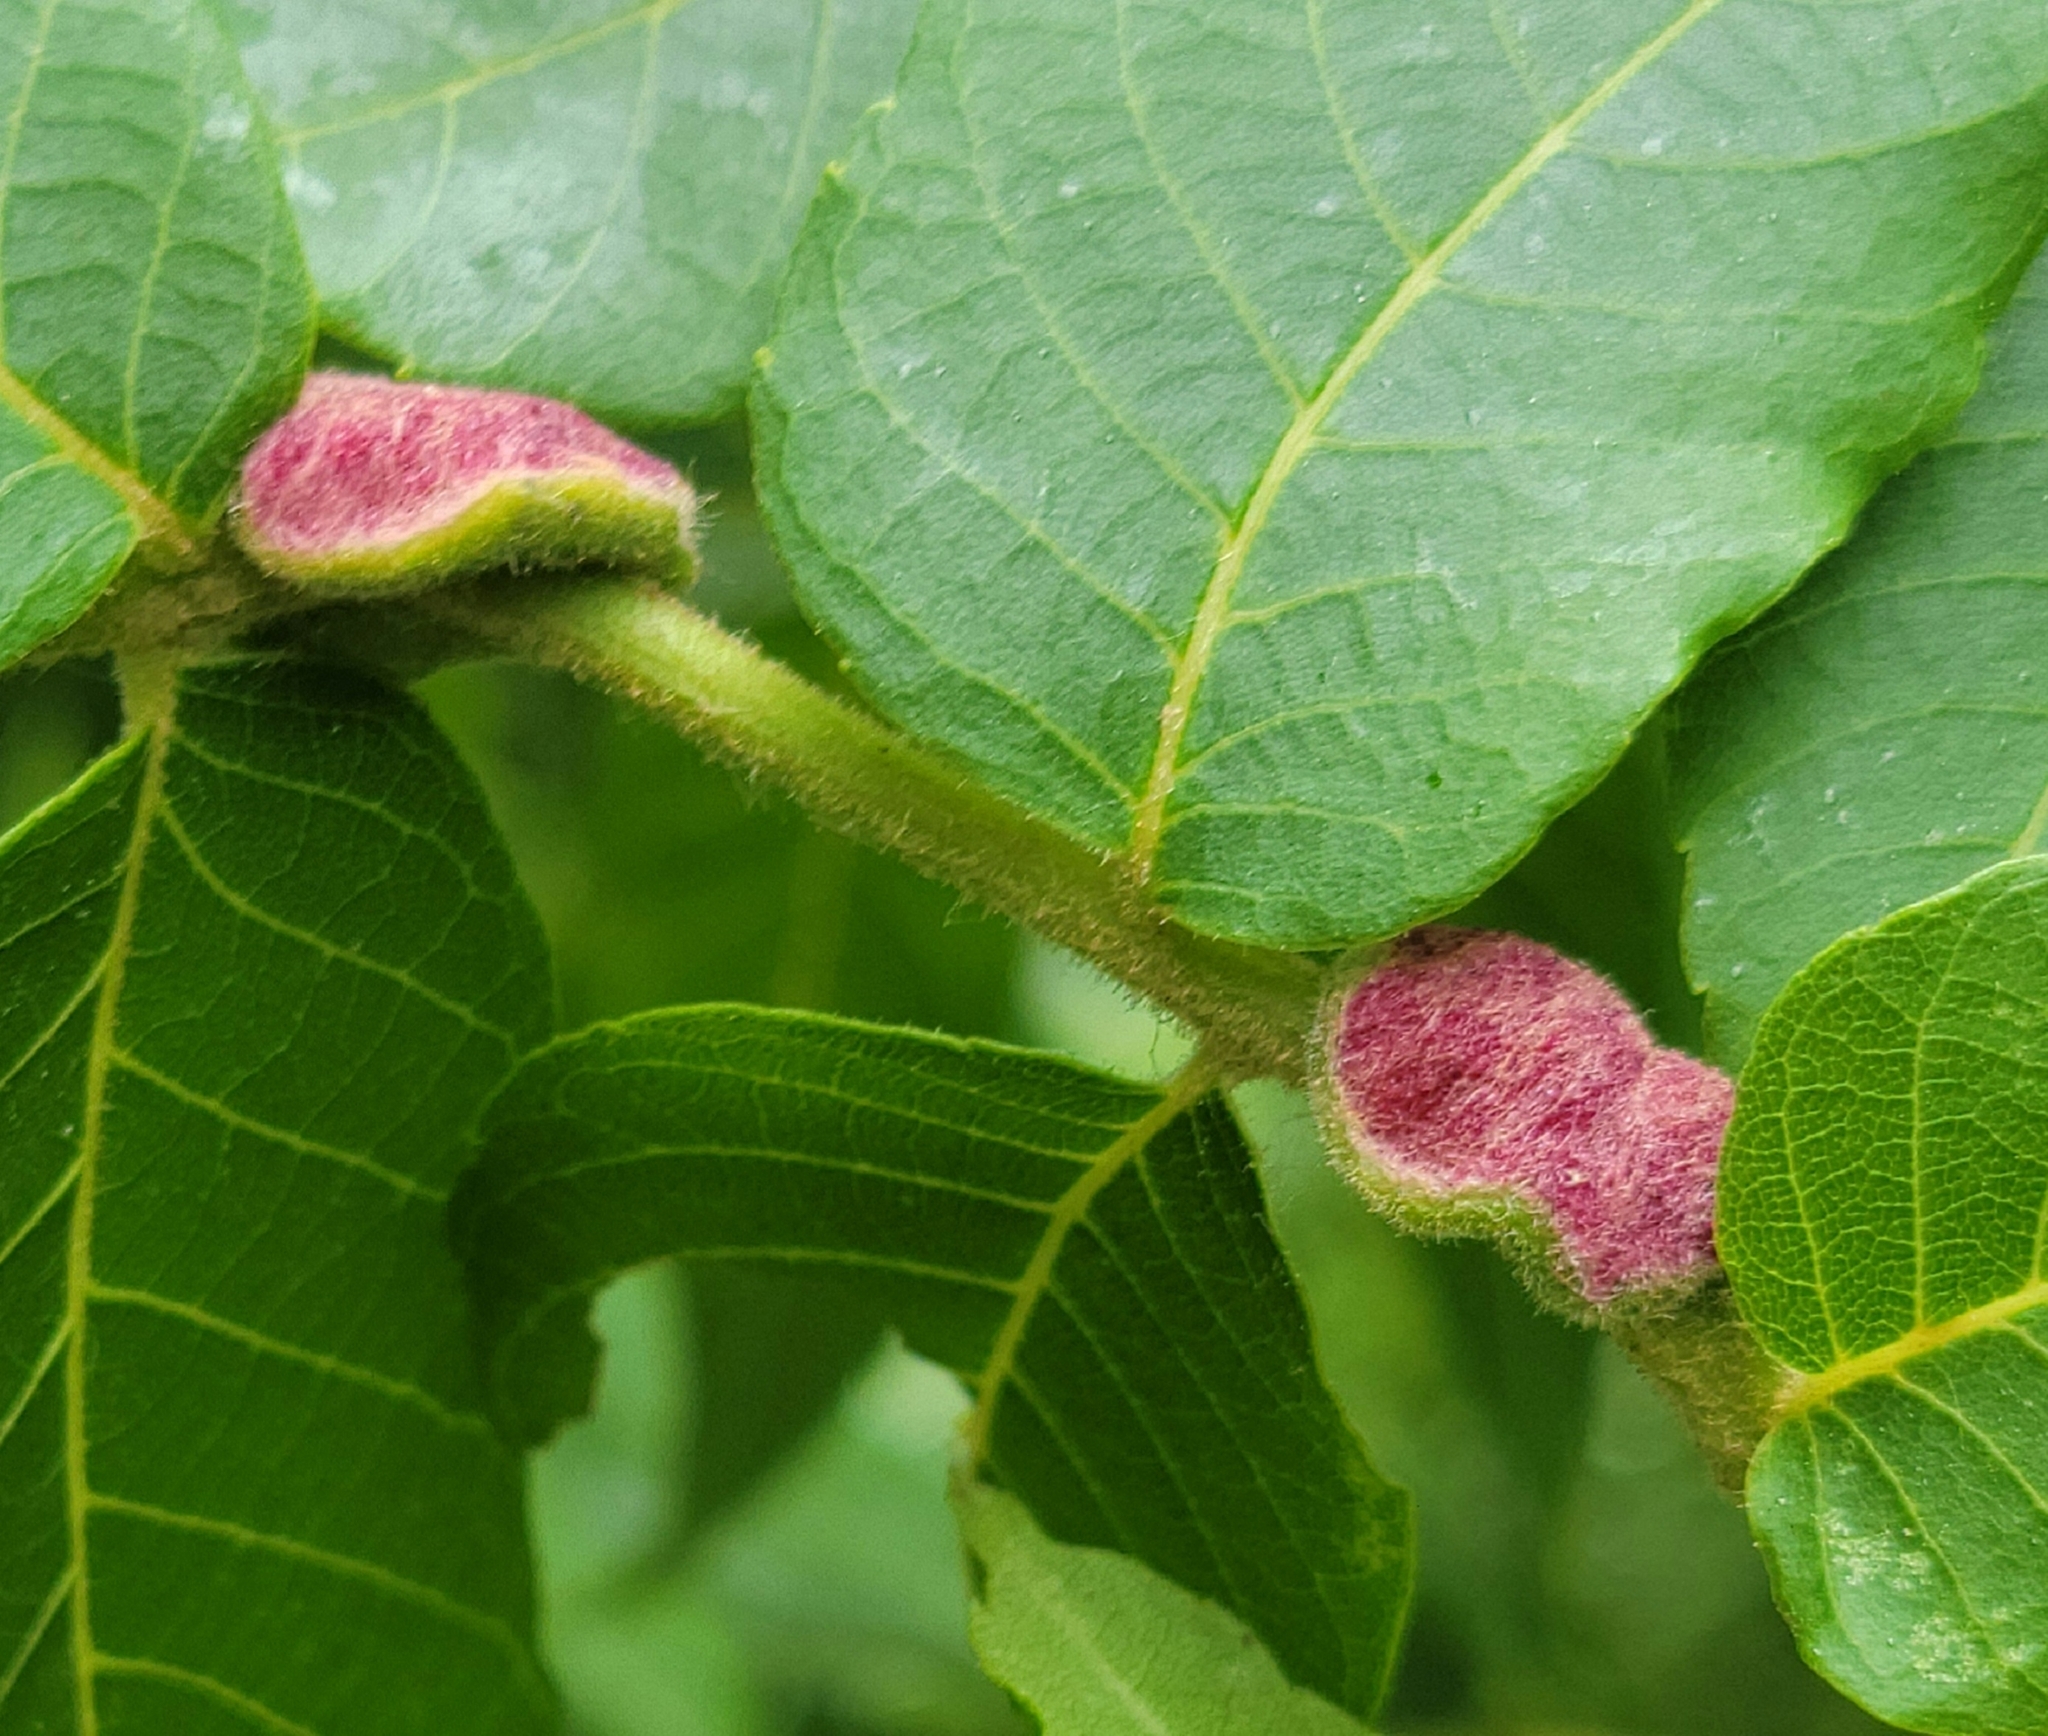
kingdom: Animalia
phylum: Arthropoda
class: Arachnida
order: Trombidiformes
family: Eriophyidae
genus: Aceria
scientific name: Aceria
